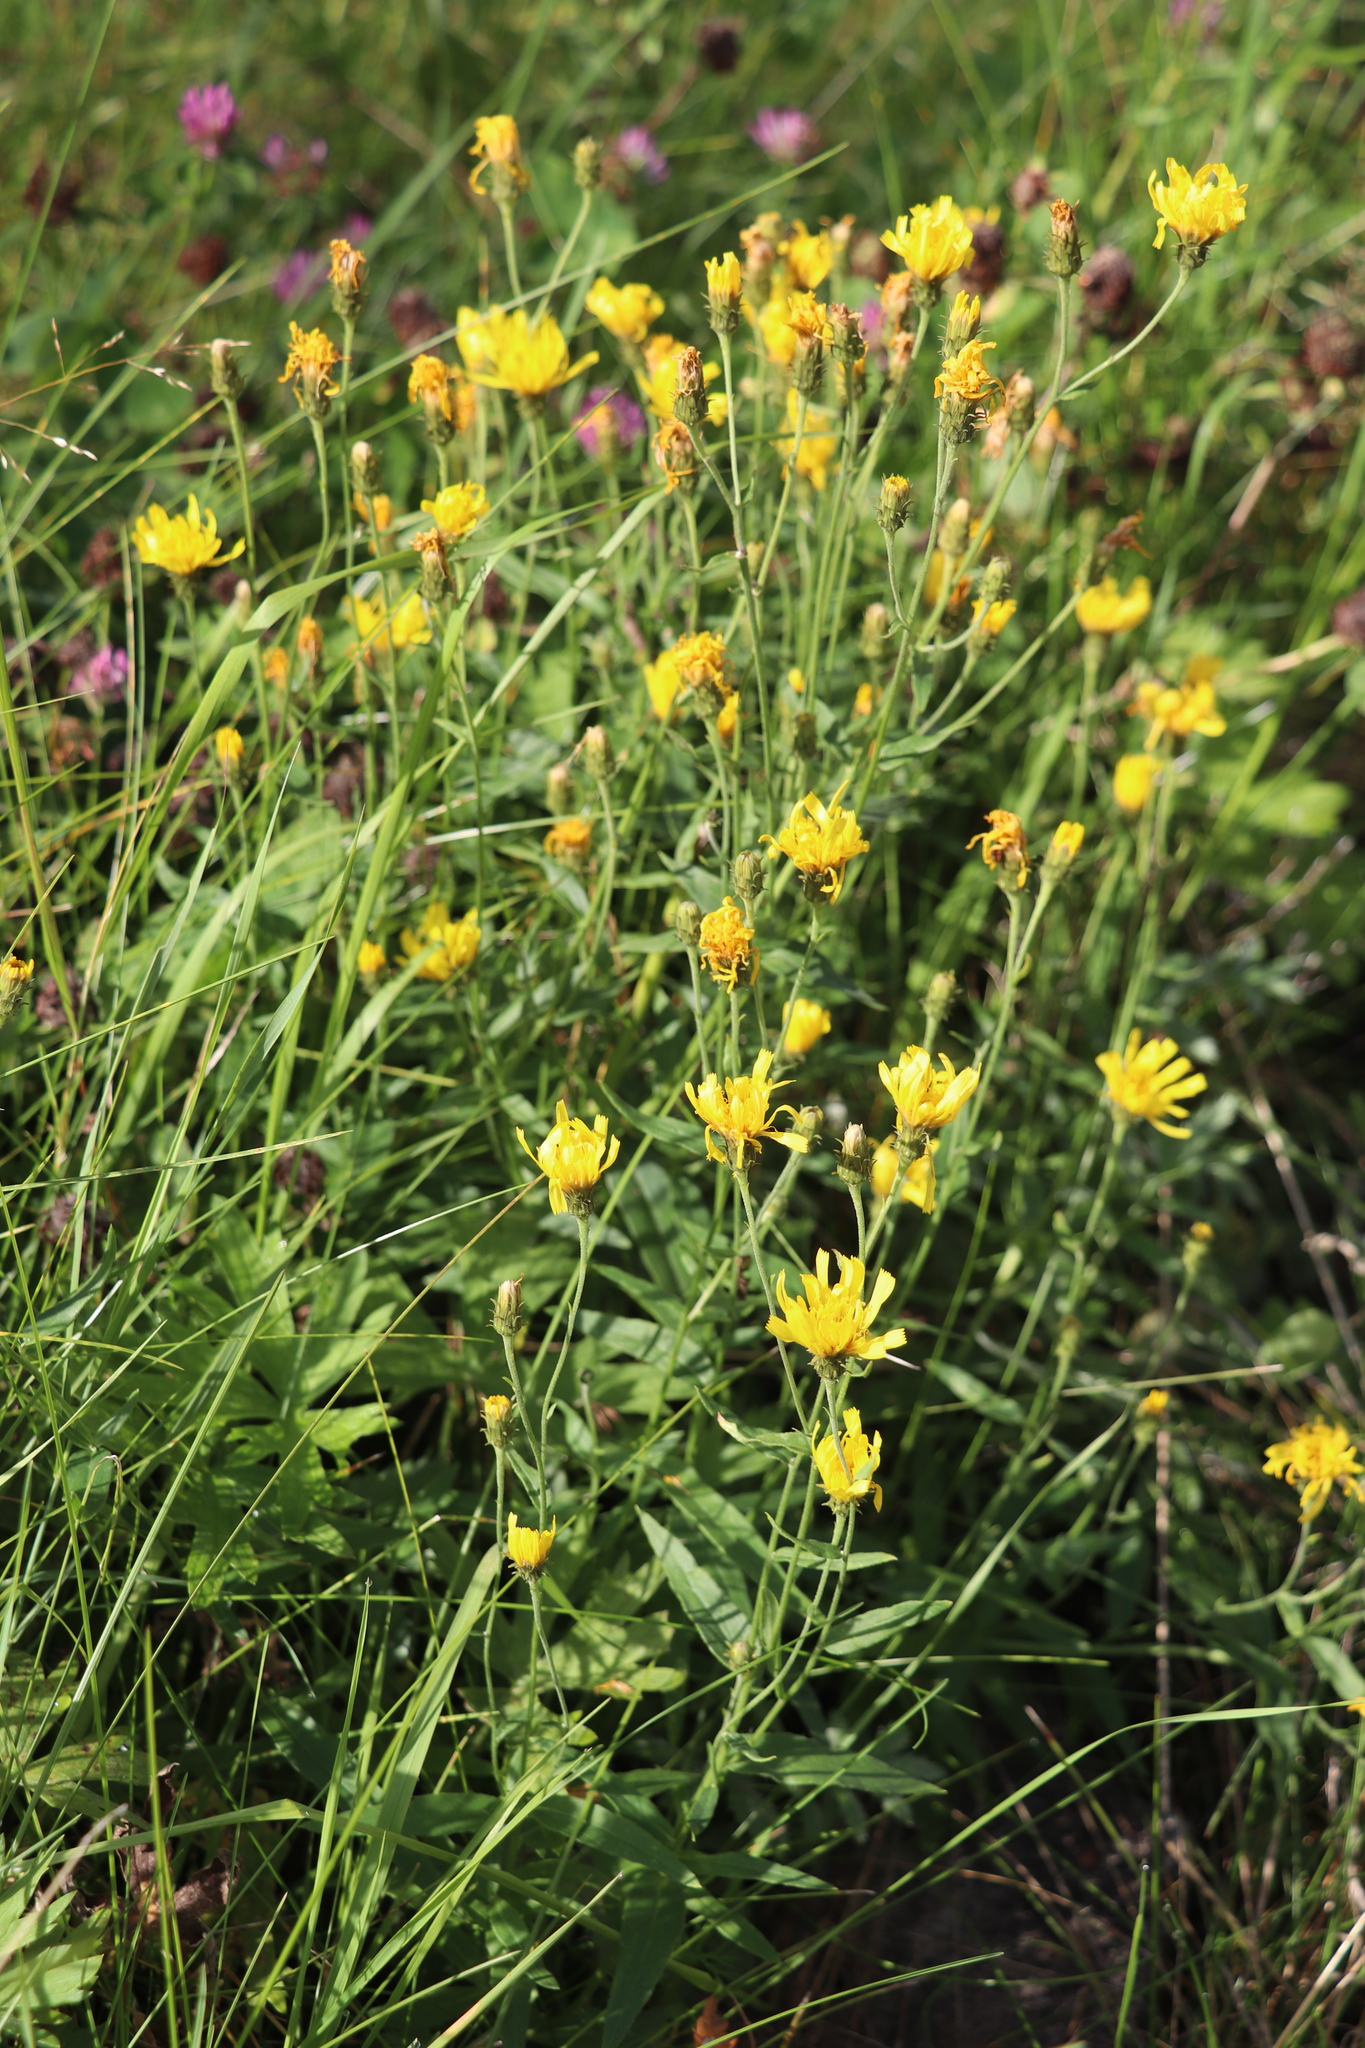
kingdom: Plantae
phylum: Tracheophyta
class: Magnoliopsida
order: Asterales
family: Asteraceae
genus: Hieracium
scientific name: Hieracium umbellatum
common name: Northern hawkweed
